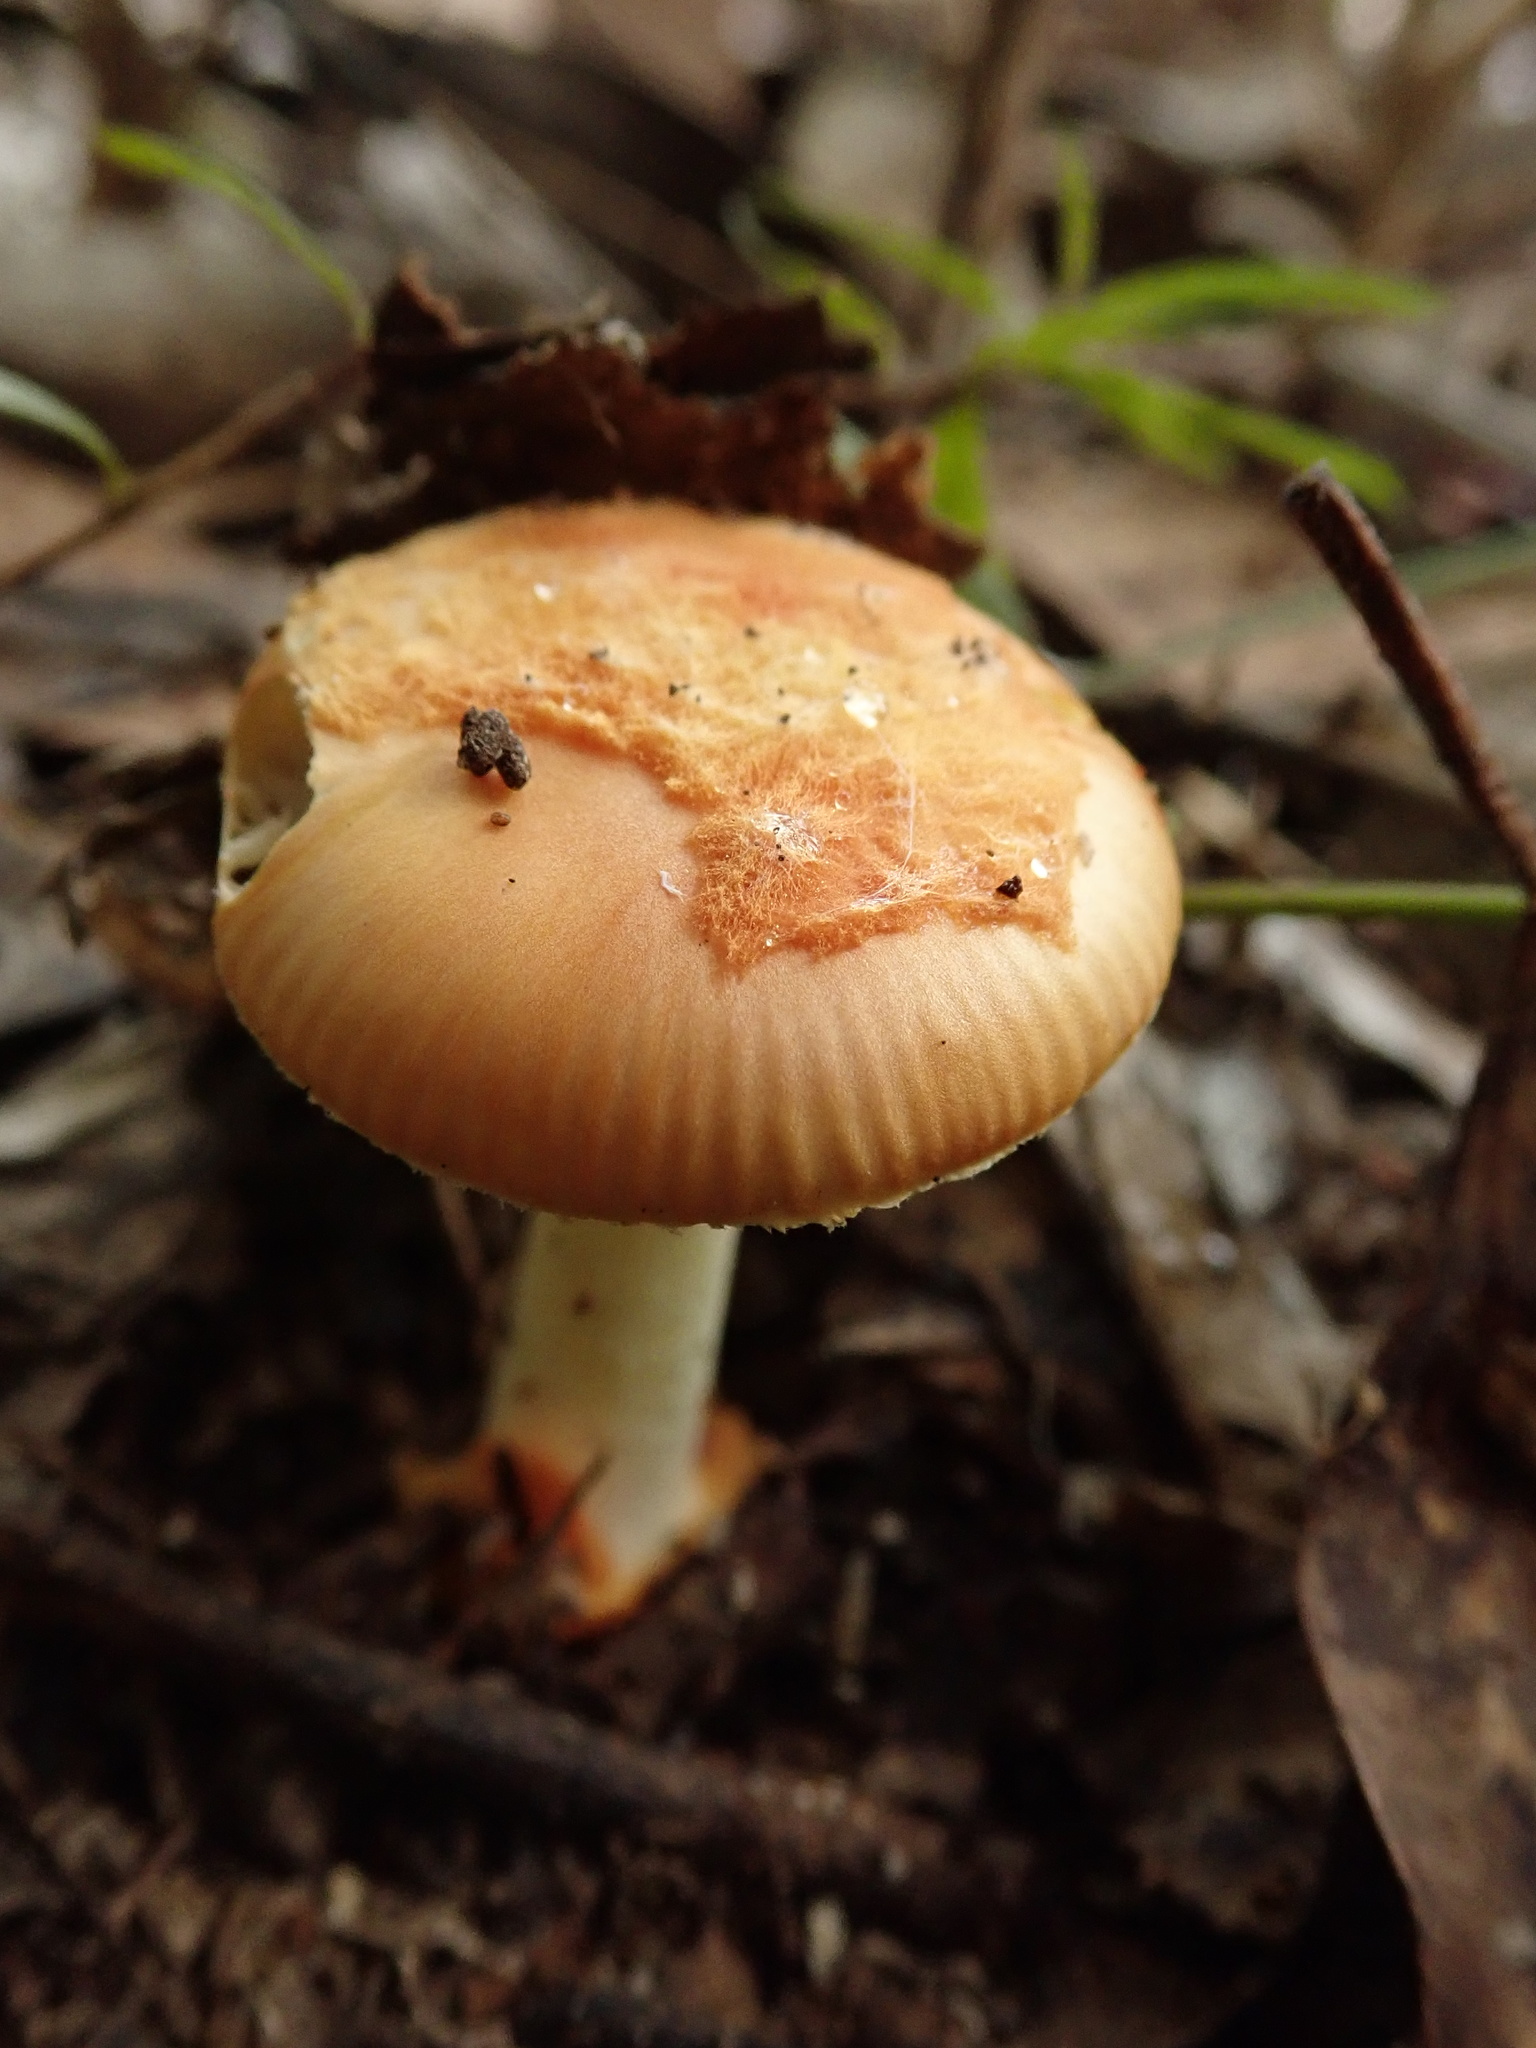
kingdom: Fungi
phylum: Basidiomycota
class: Agaricomycetes
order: Agaricales
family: Amanitaceae
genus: Amanita
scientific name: Amanita xanthocephala
